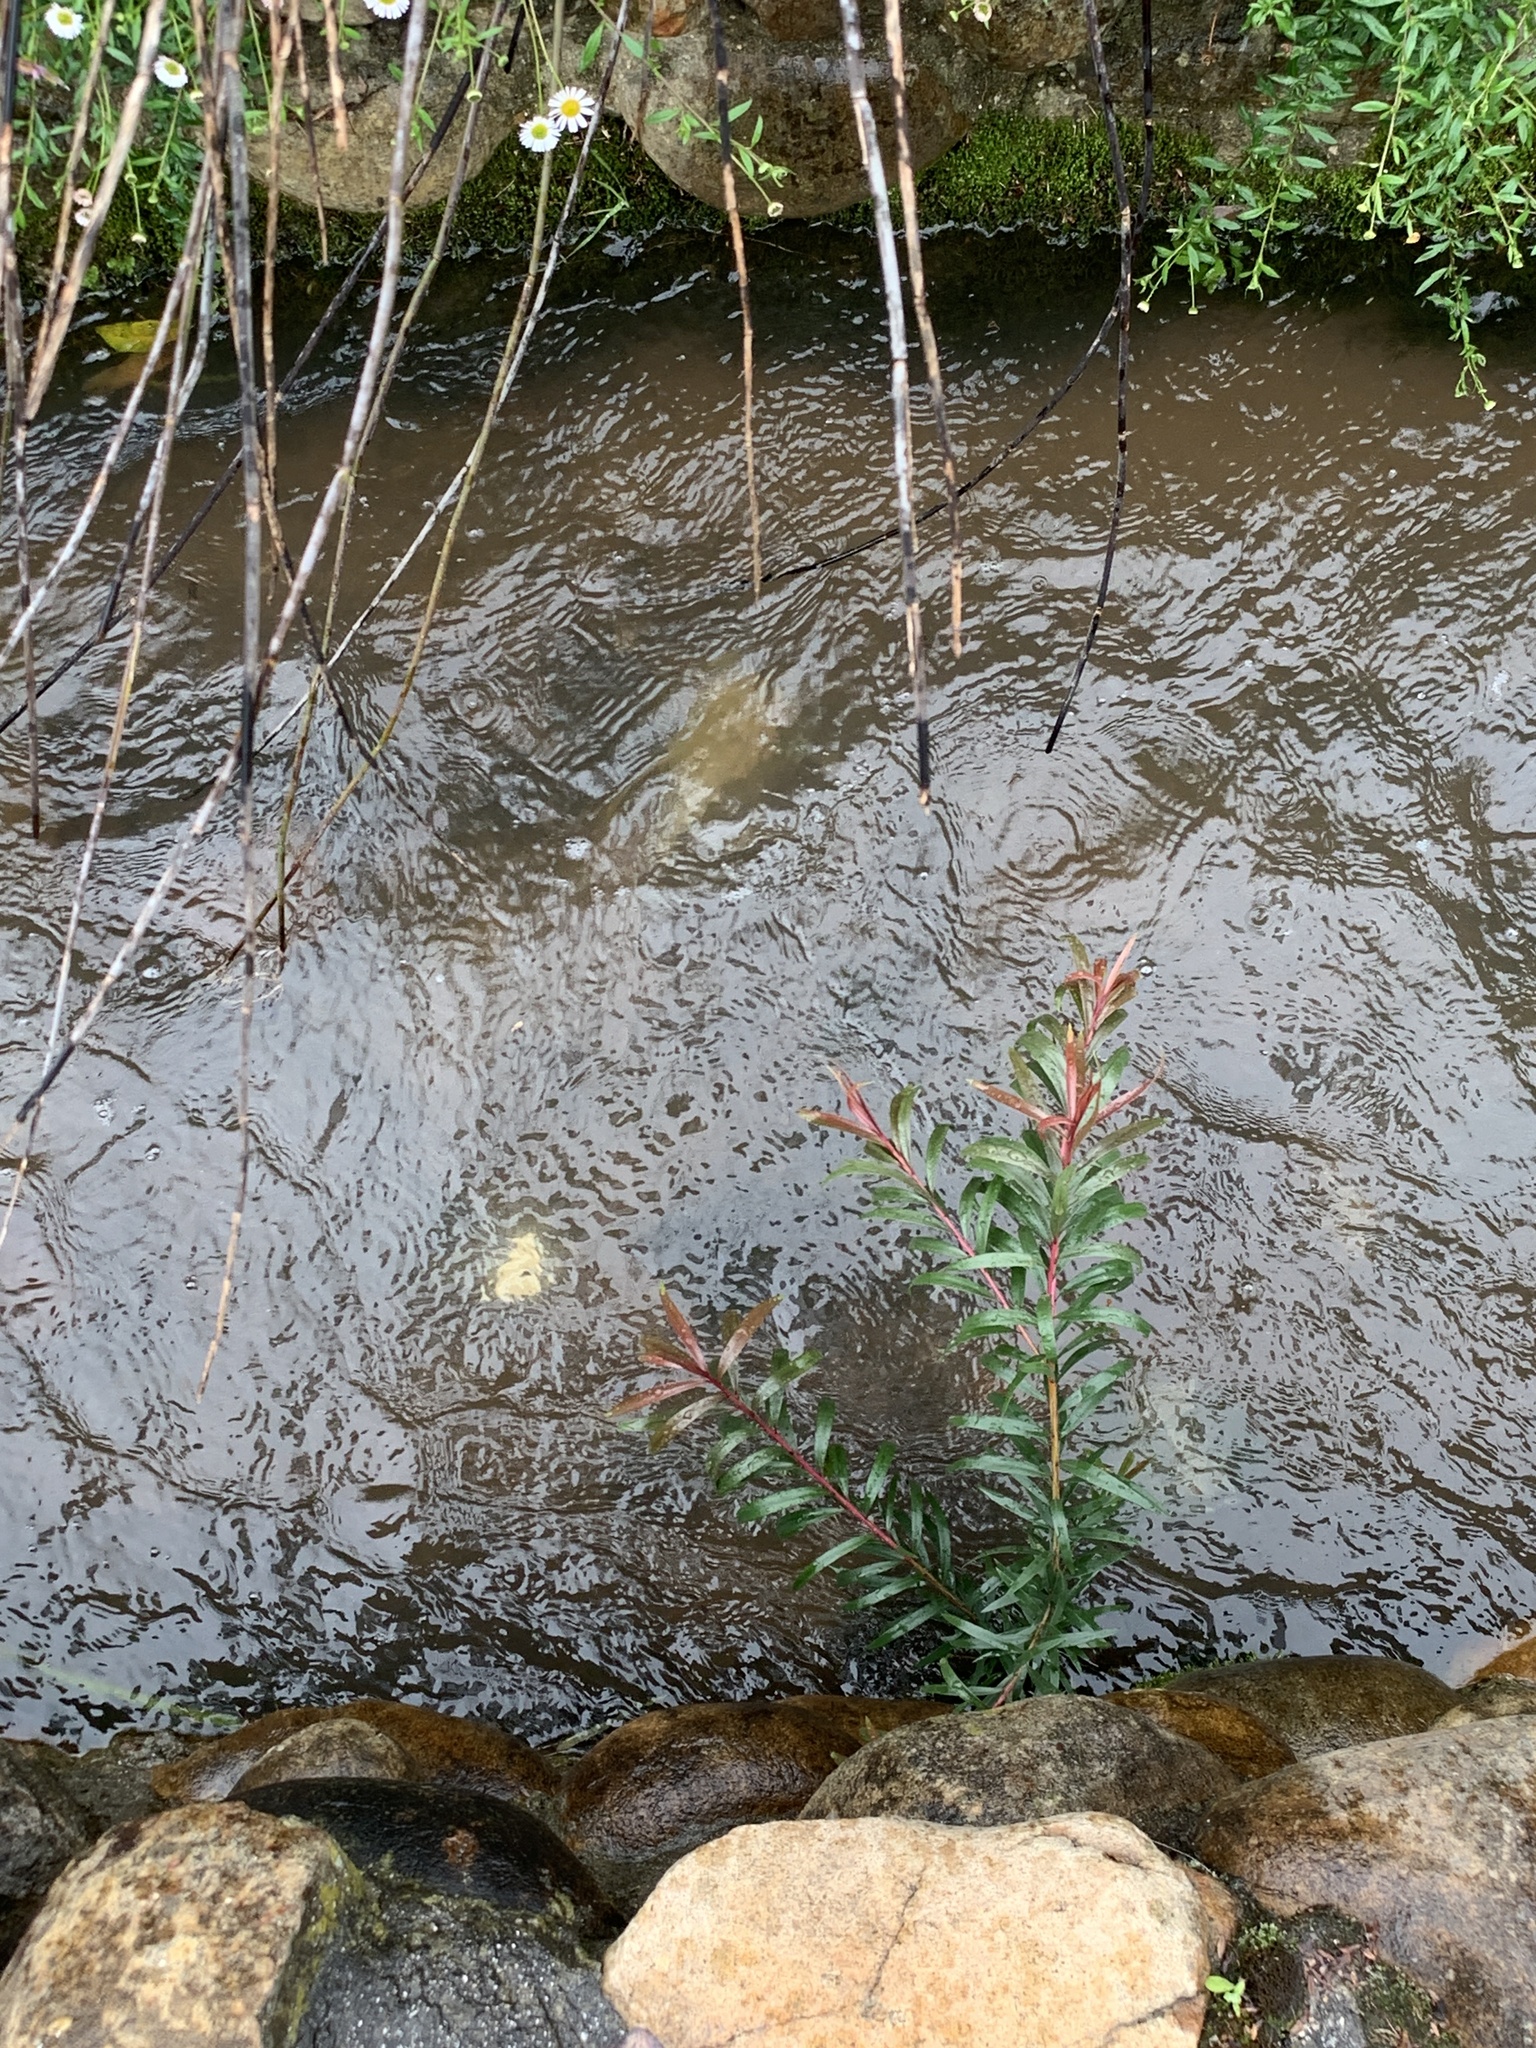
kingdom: Plantae
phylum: Tracheophyta
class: Magnoliopsida
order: Myrtales
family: Myrtaceae
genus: Callistemon
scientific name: Callistemon viminalis
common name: Drooping bottlebrush
